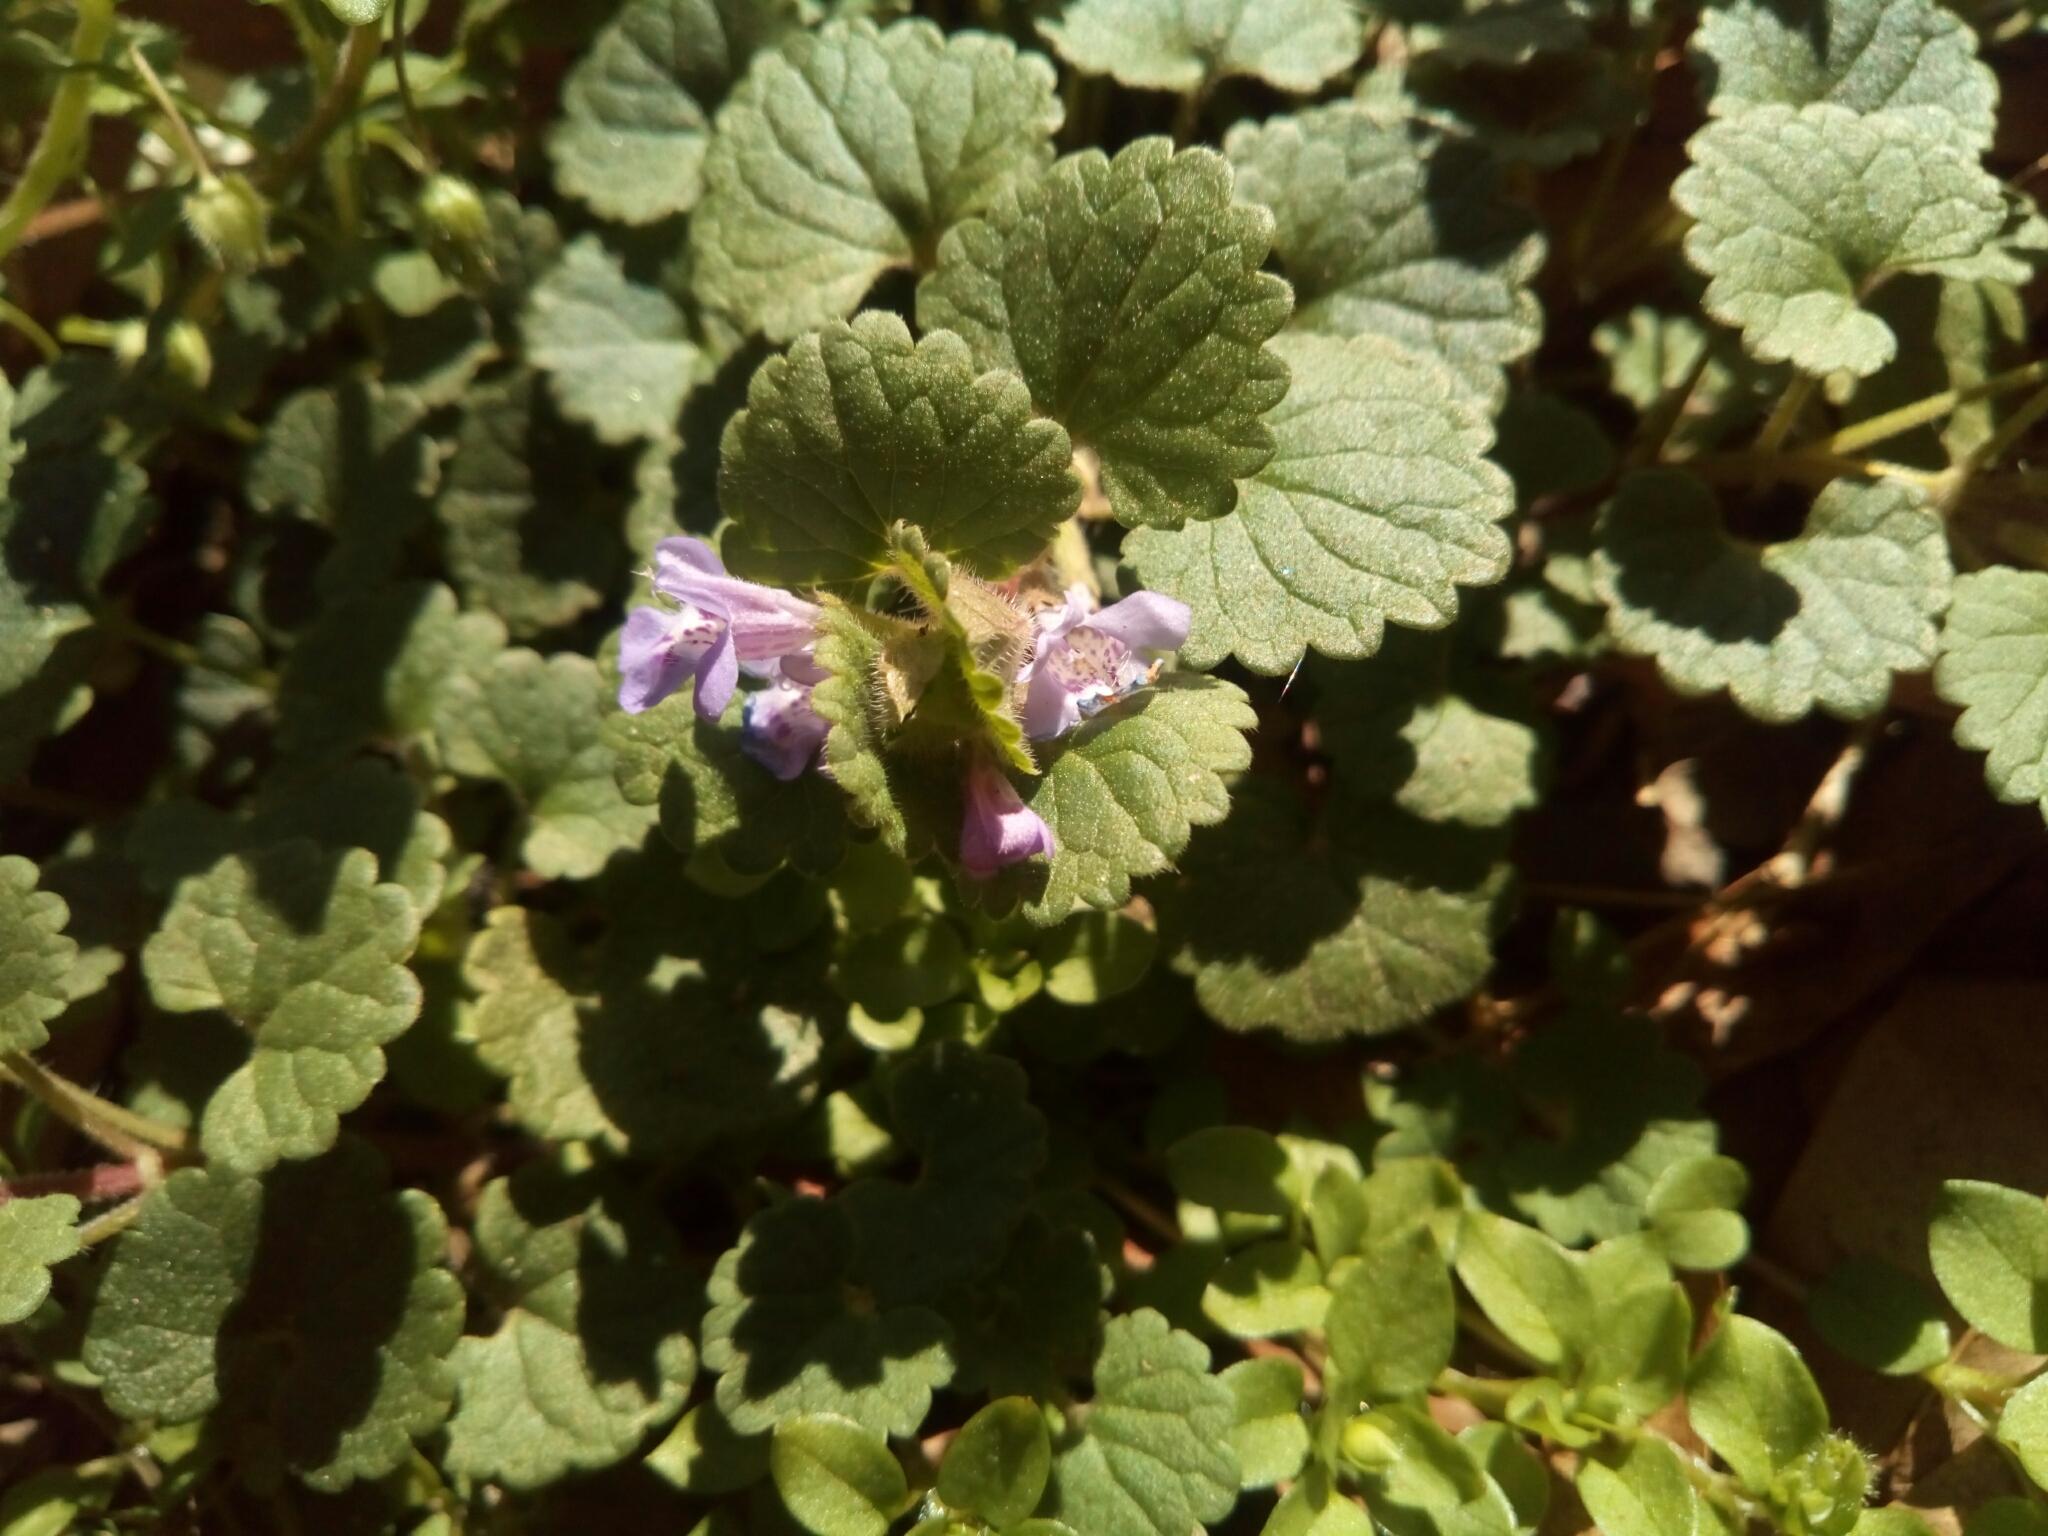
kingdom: Plantae
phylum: Tracheophyta
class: Magnoliopsida
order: Lamiales
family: Lamiaceae
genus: Glechoma
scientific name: Glechoma hederacea
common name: Ground ivy
